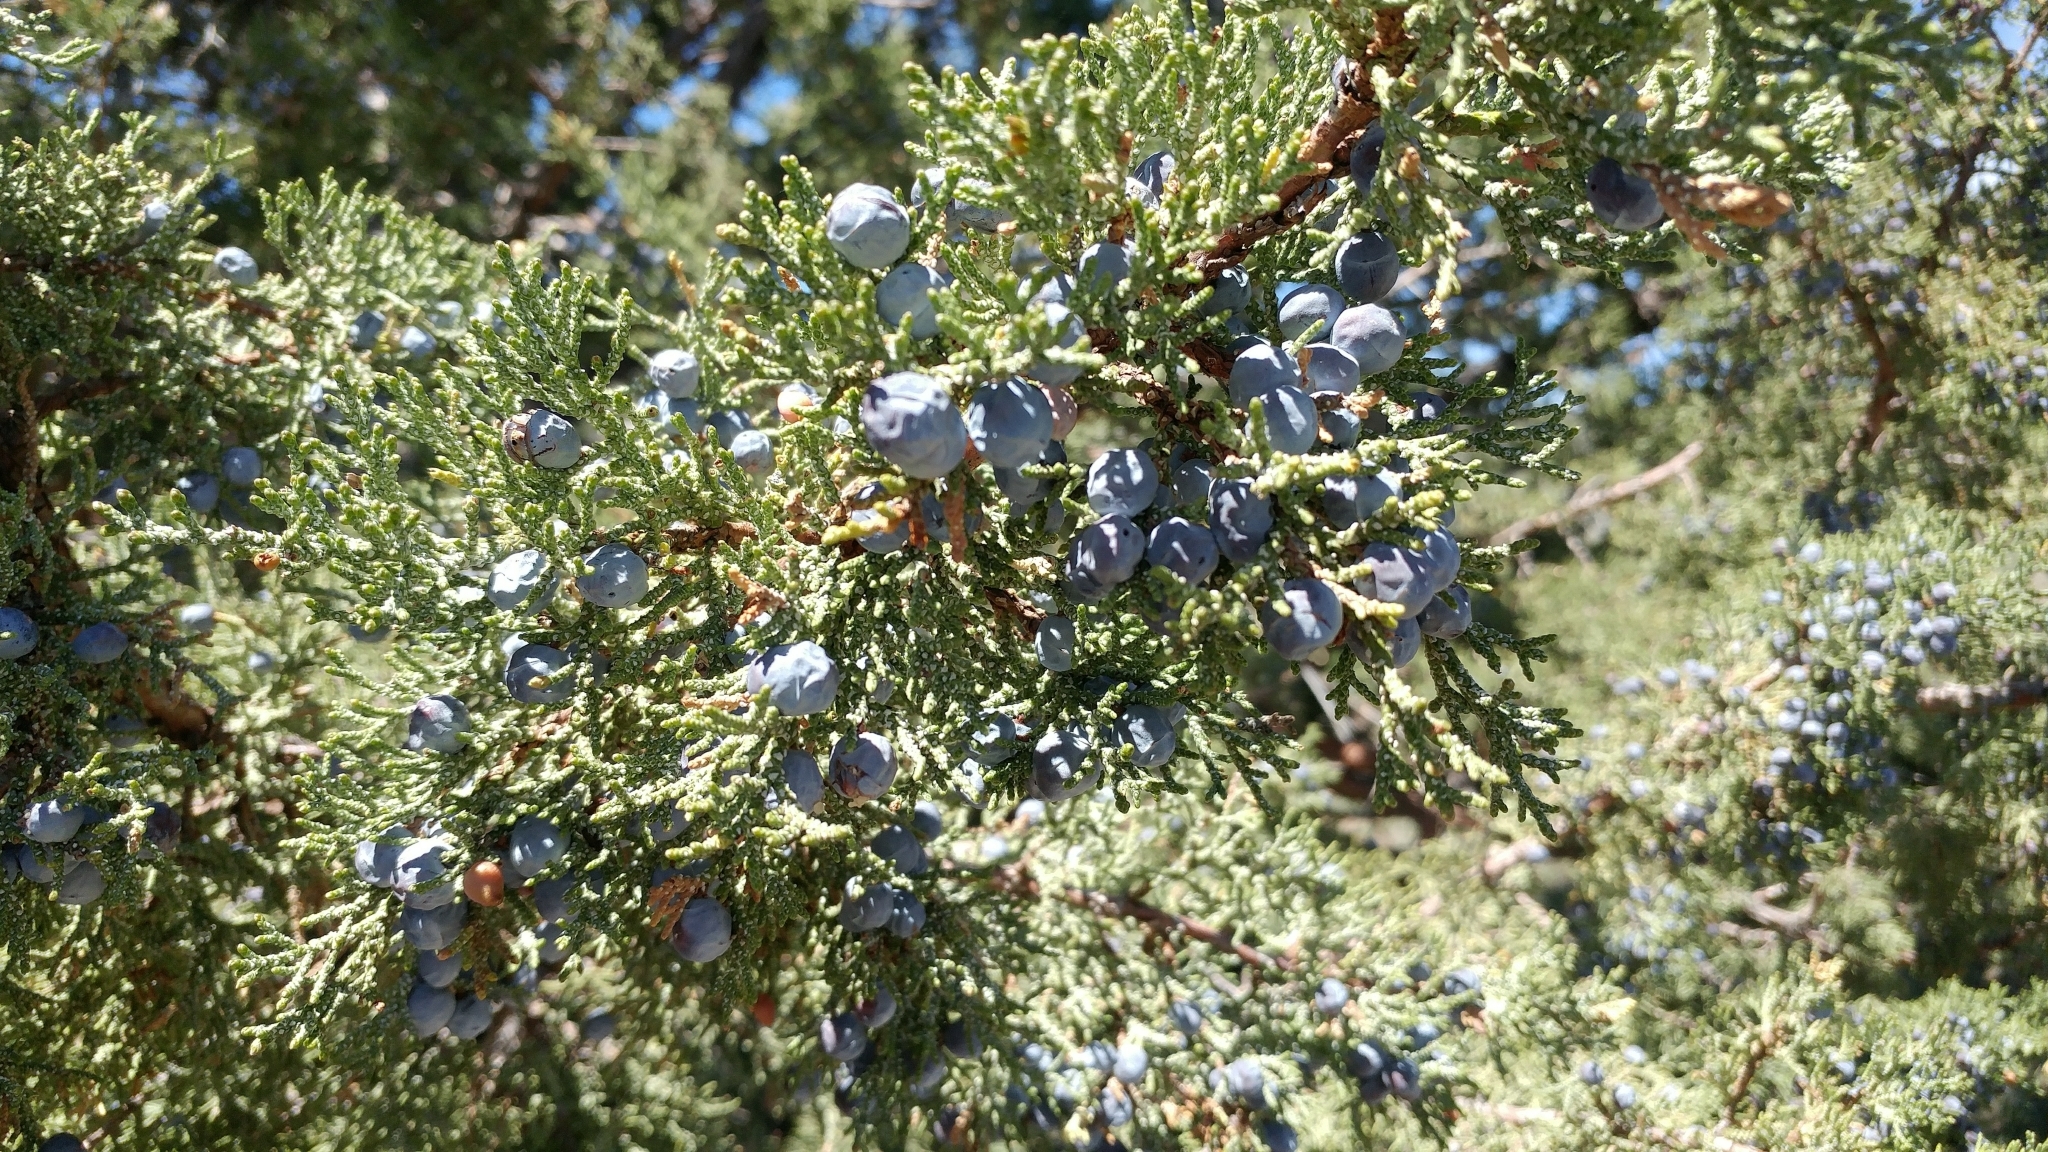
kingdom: Plantae
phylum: Tracheophyta
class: Pinopsida
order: Pinales
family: Cupressaceae
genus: Juniperus
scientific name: Juniperus occidentalis
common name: Western juniper
